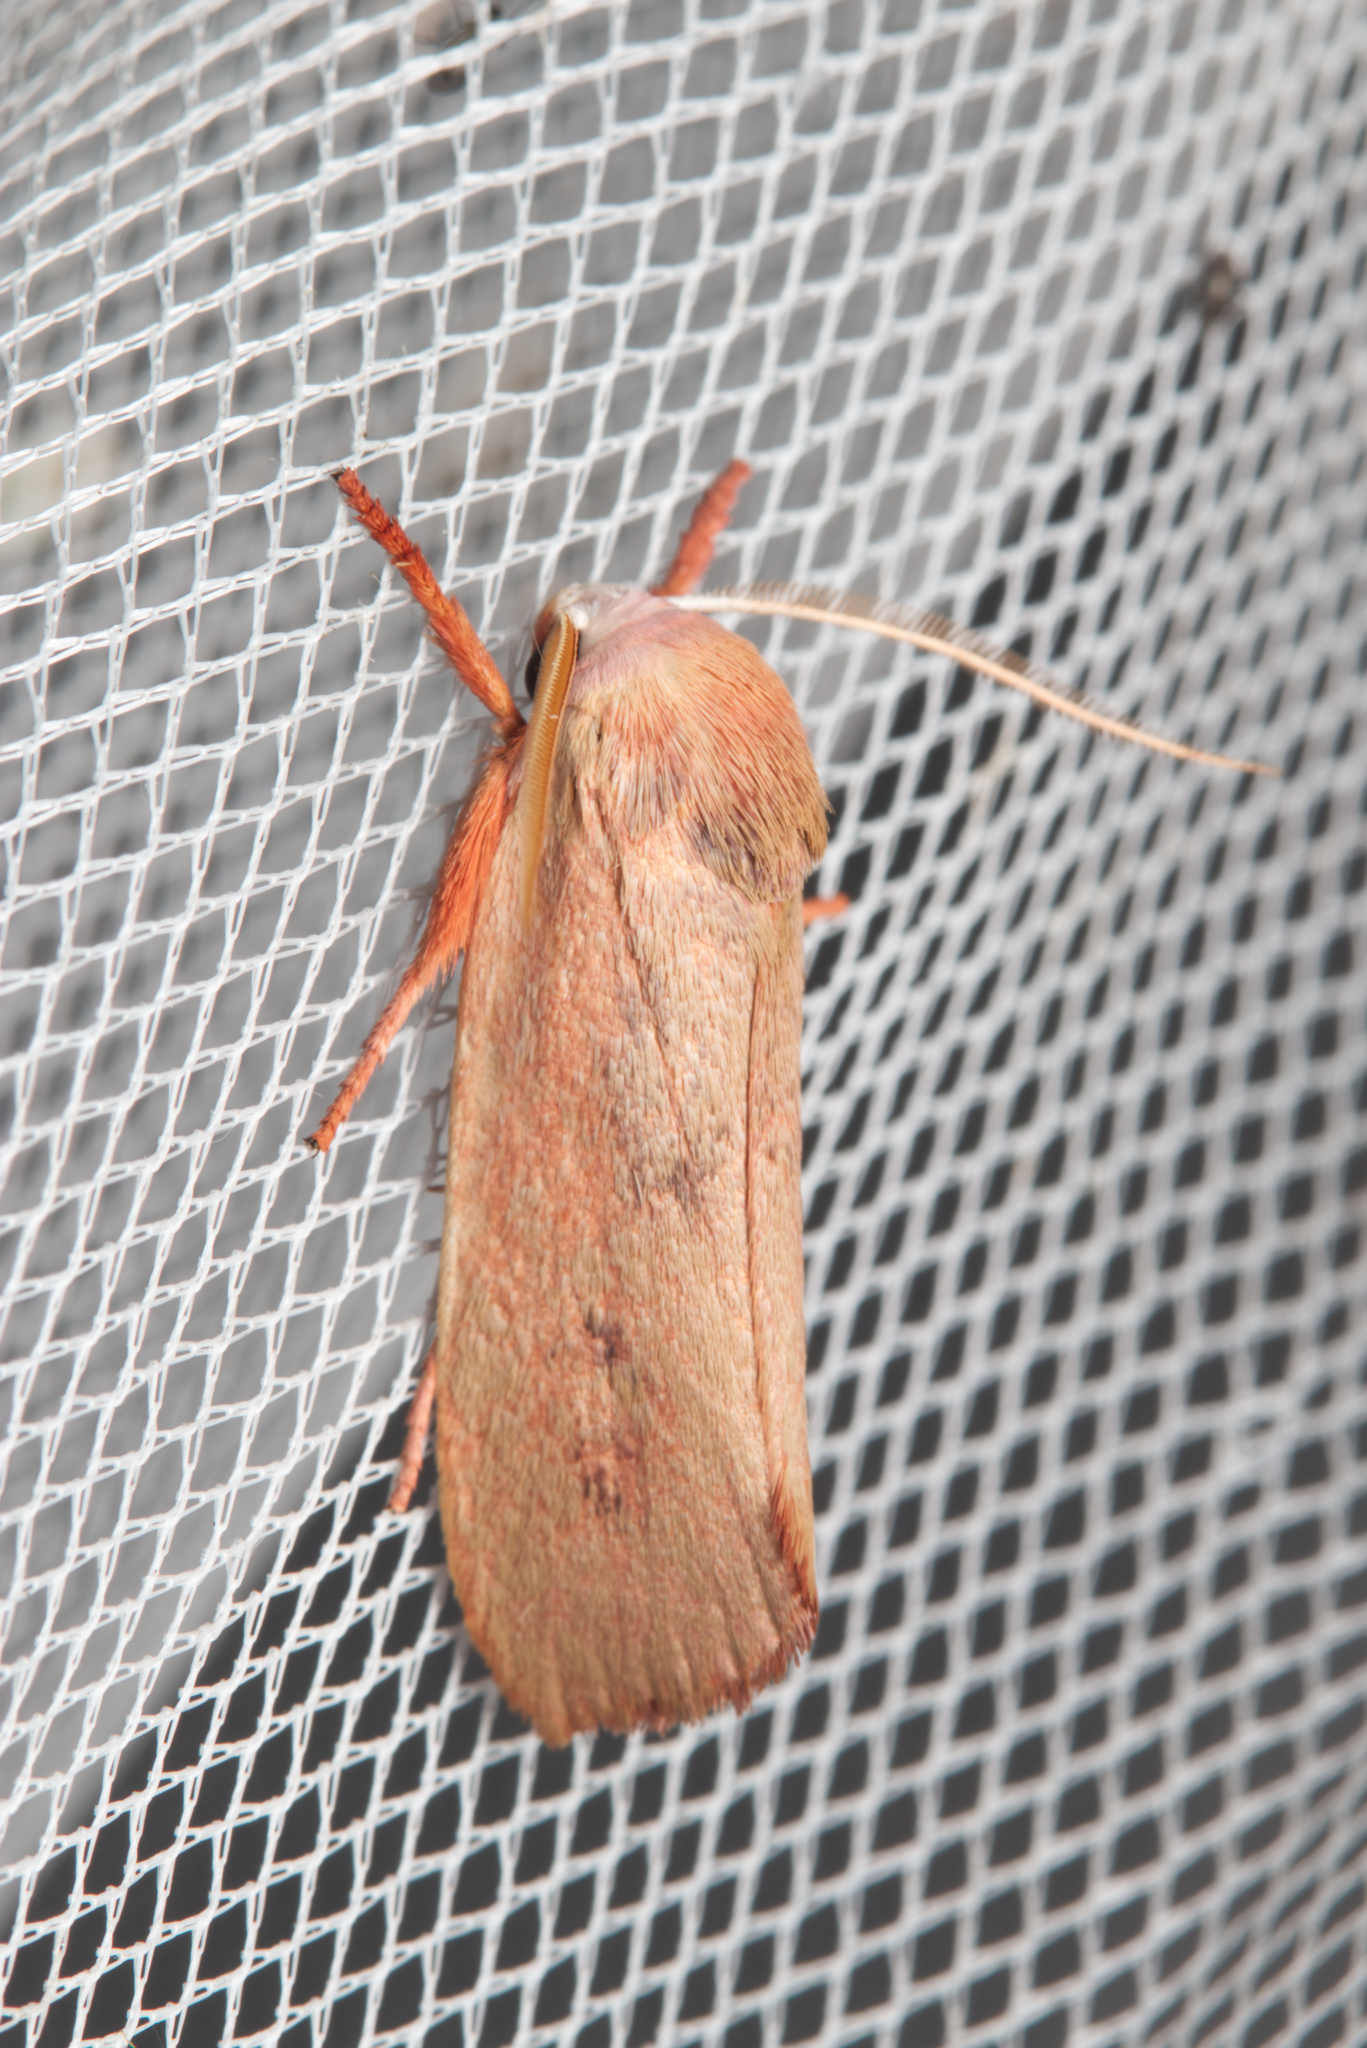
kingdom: Animalia
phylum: Arthropoda
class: Insecta
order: Lepidoptera
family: Xyloryctidae
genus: Cryptophasa
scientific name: Cryptophasa rubescens
